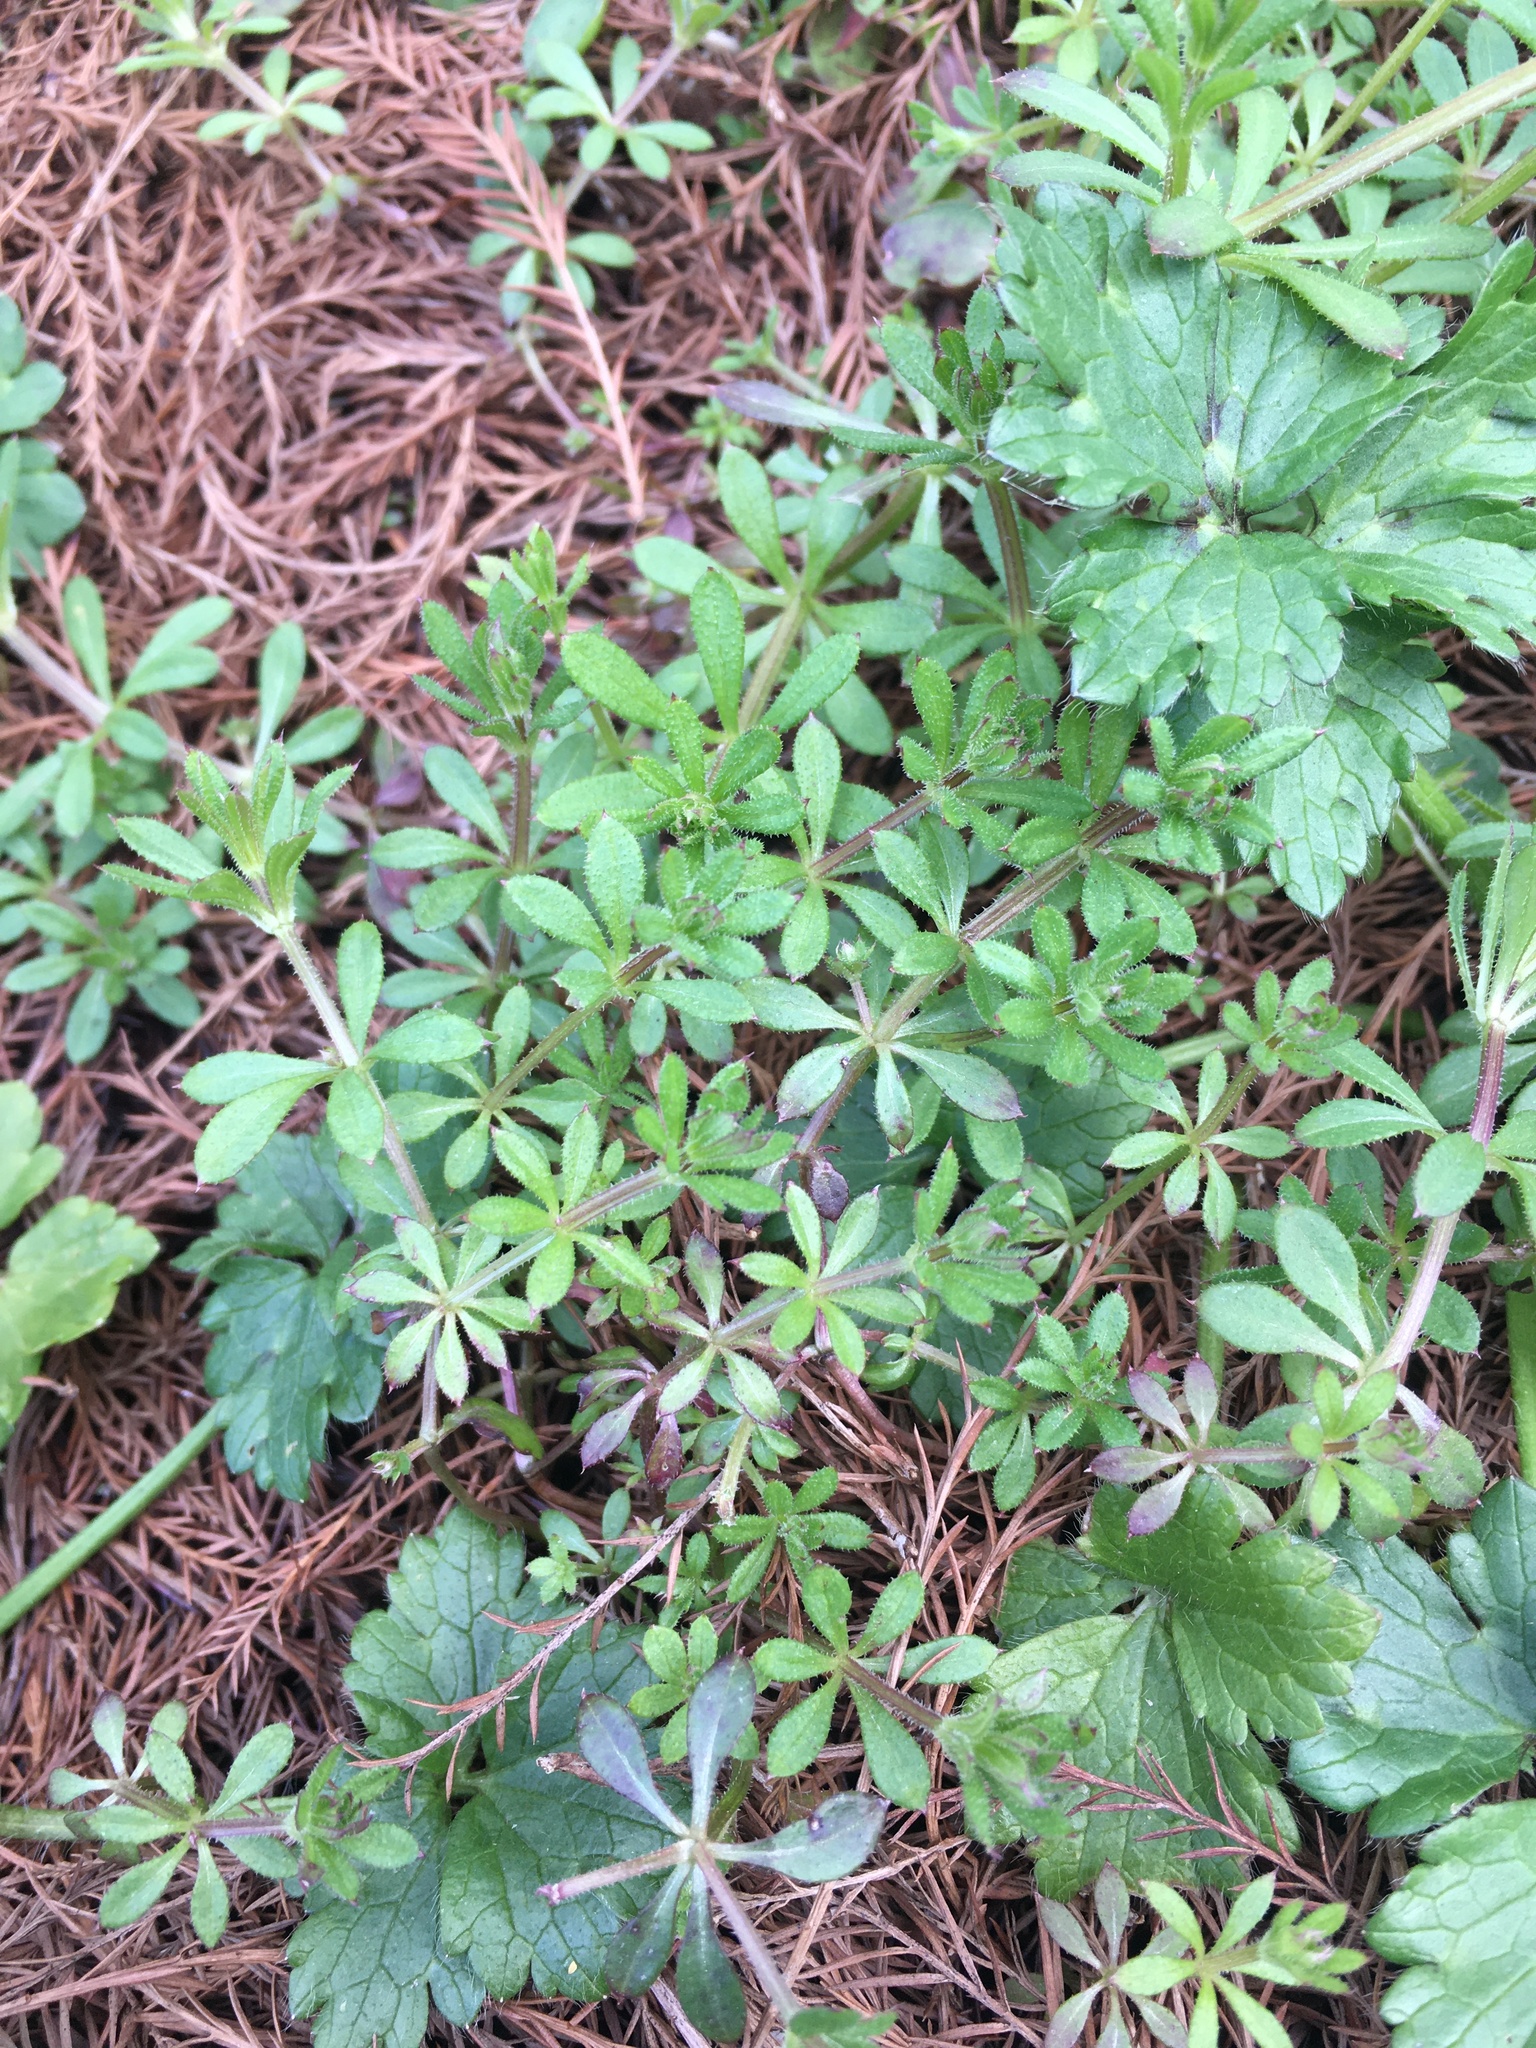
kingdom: Plantae
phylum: Tracheophyta
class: Magnoliopsida
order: Gentianales
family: Rubiaceae
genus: Galium
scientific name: Galium aparine
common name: Cleavers
